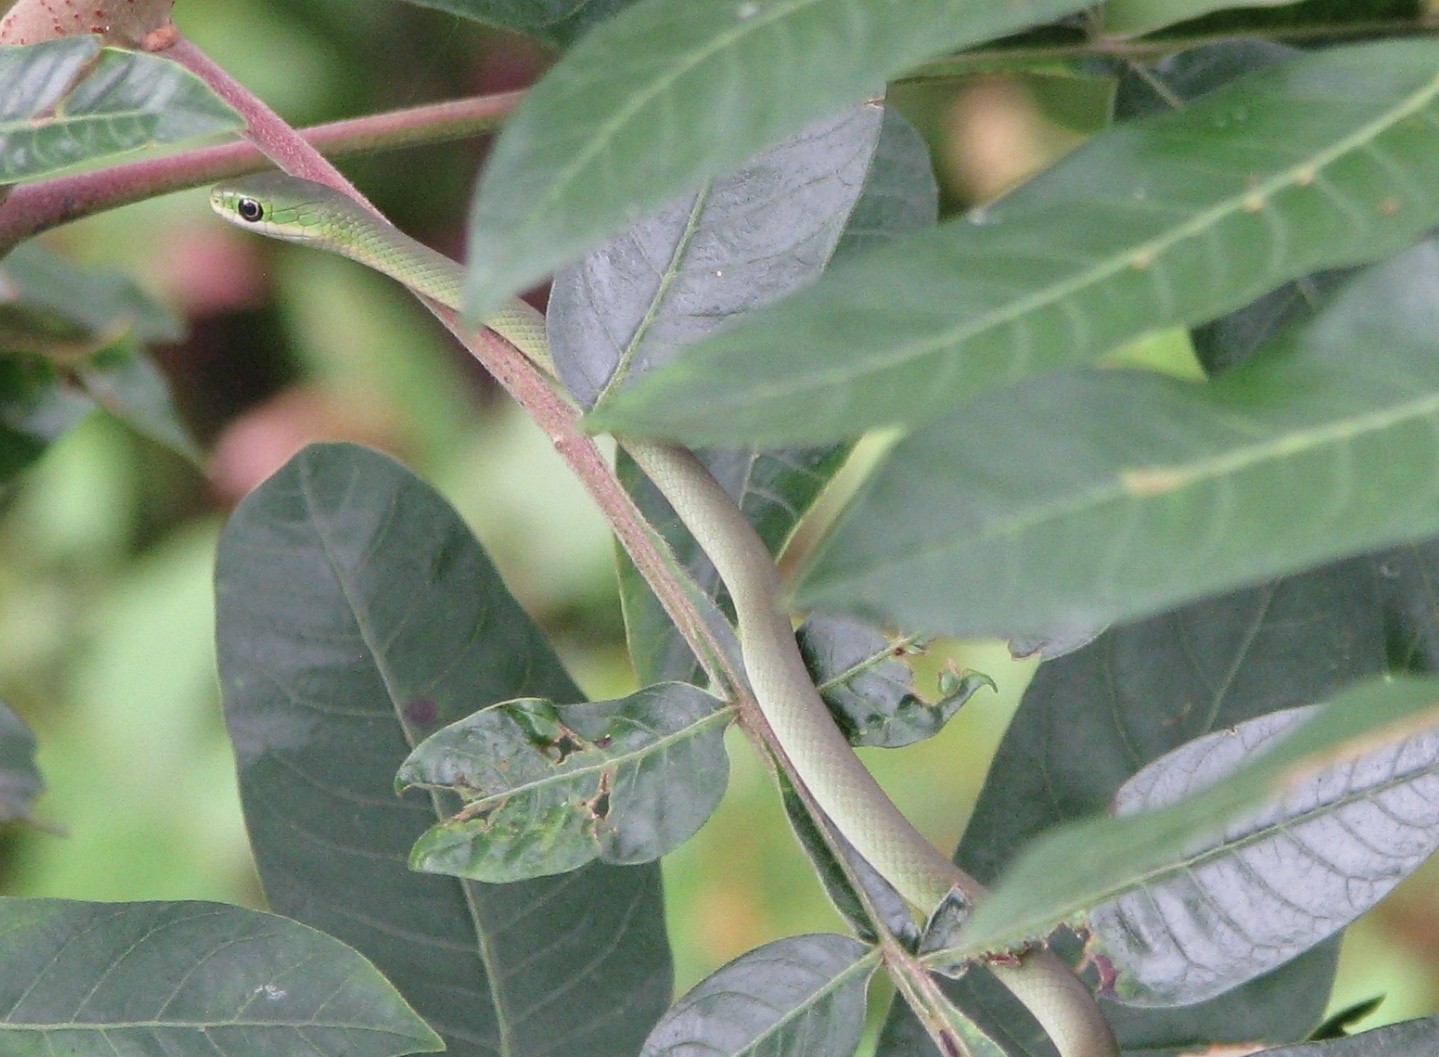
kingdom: Animalia
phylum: Chordata
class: Squamata
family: Colubridae
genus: Opheodrys
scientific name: Opheodrys aestivus
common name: Rough greensnake
